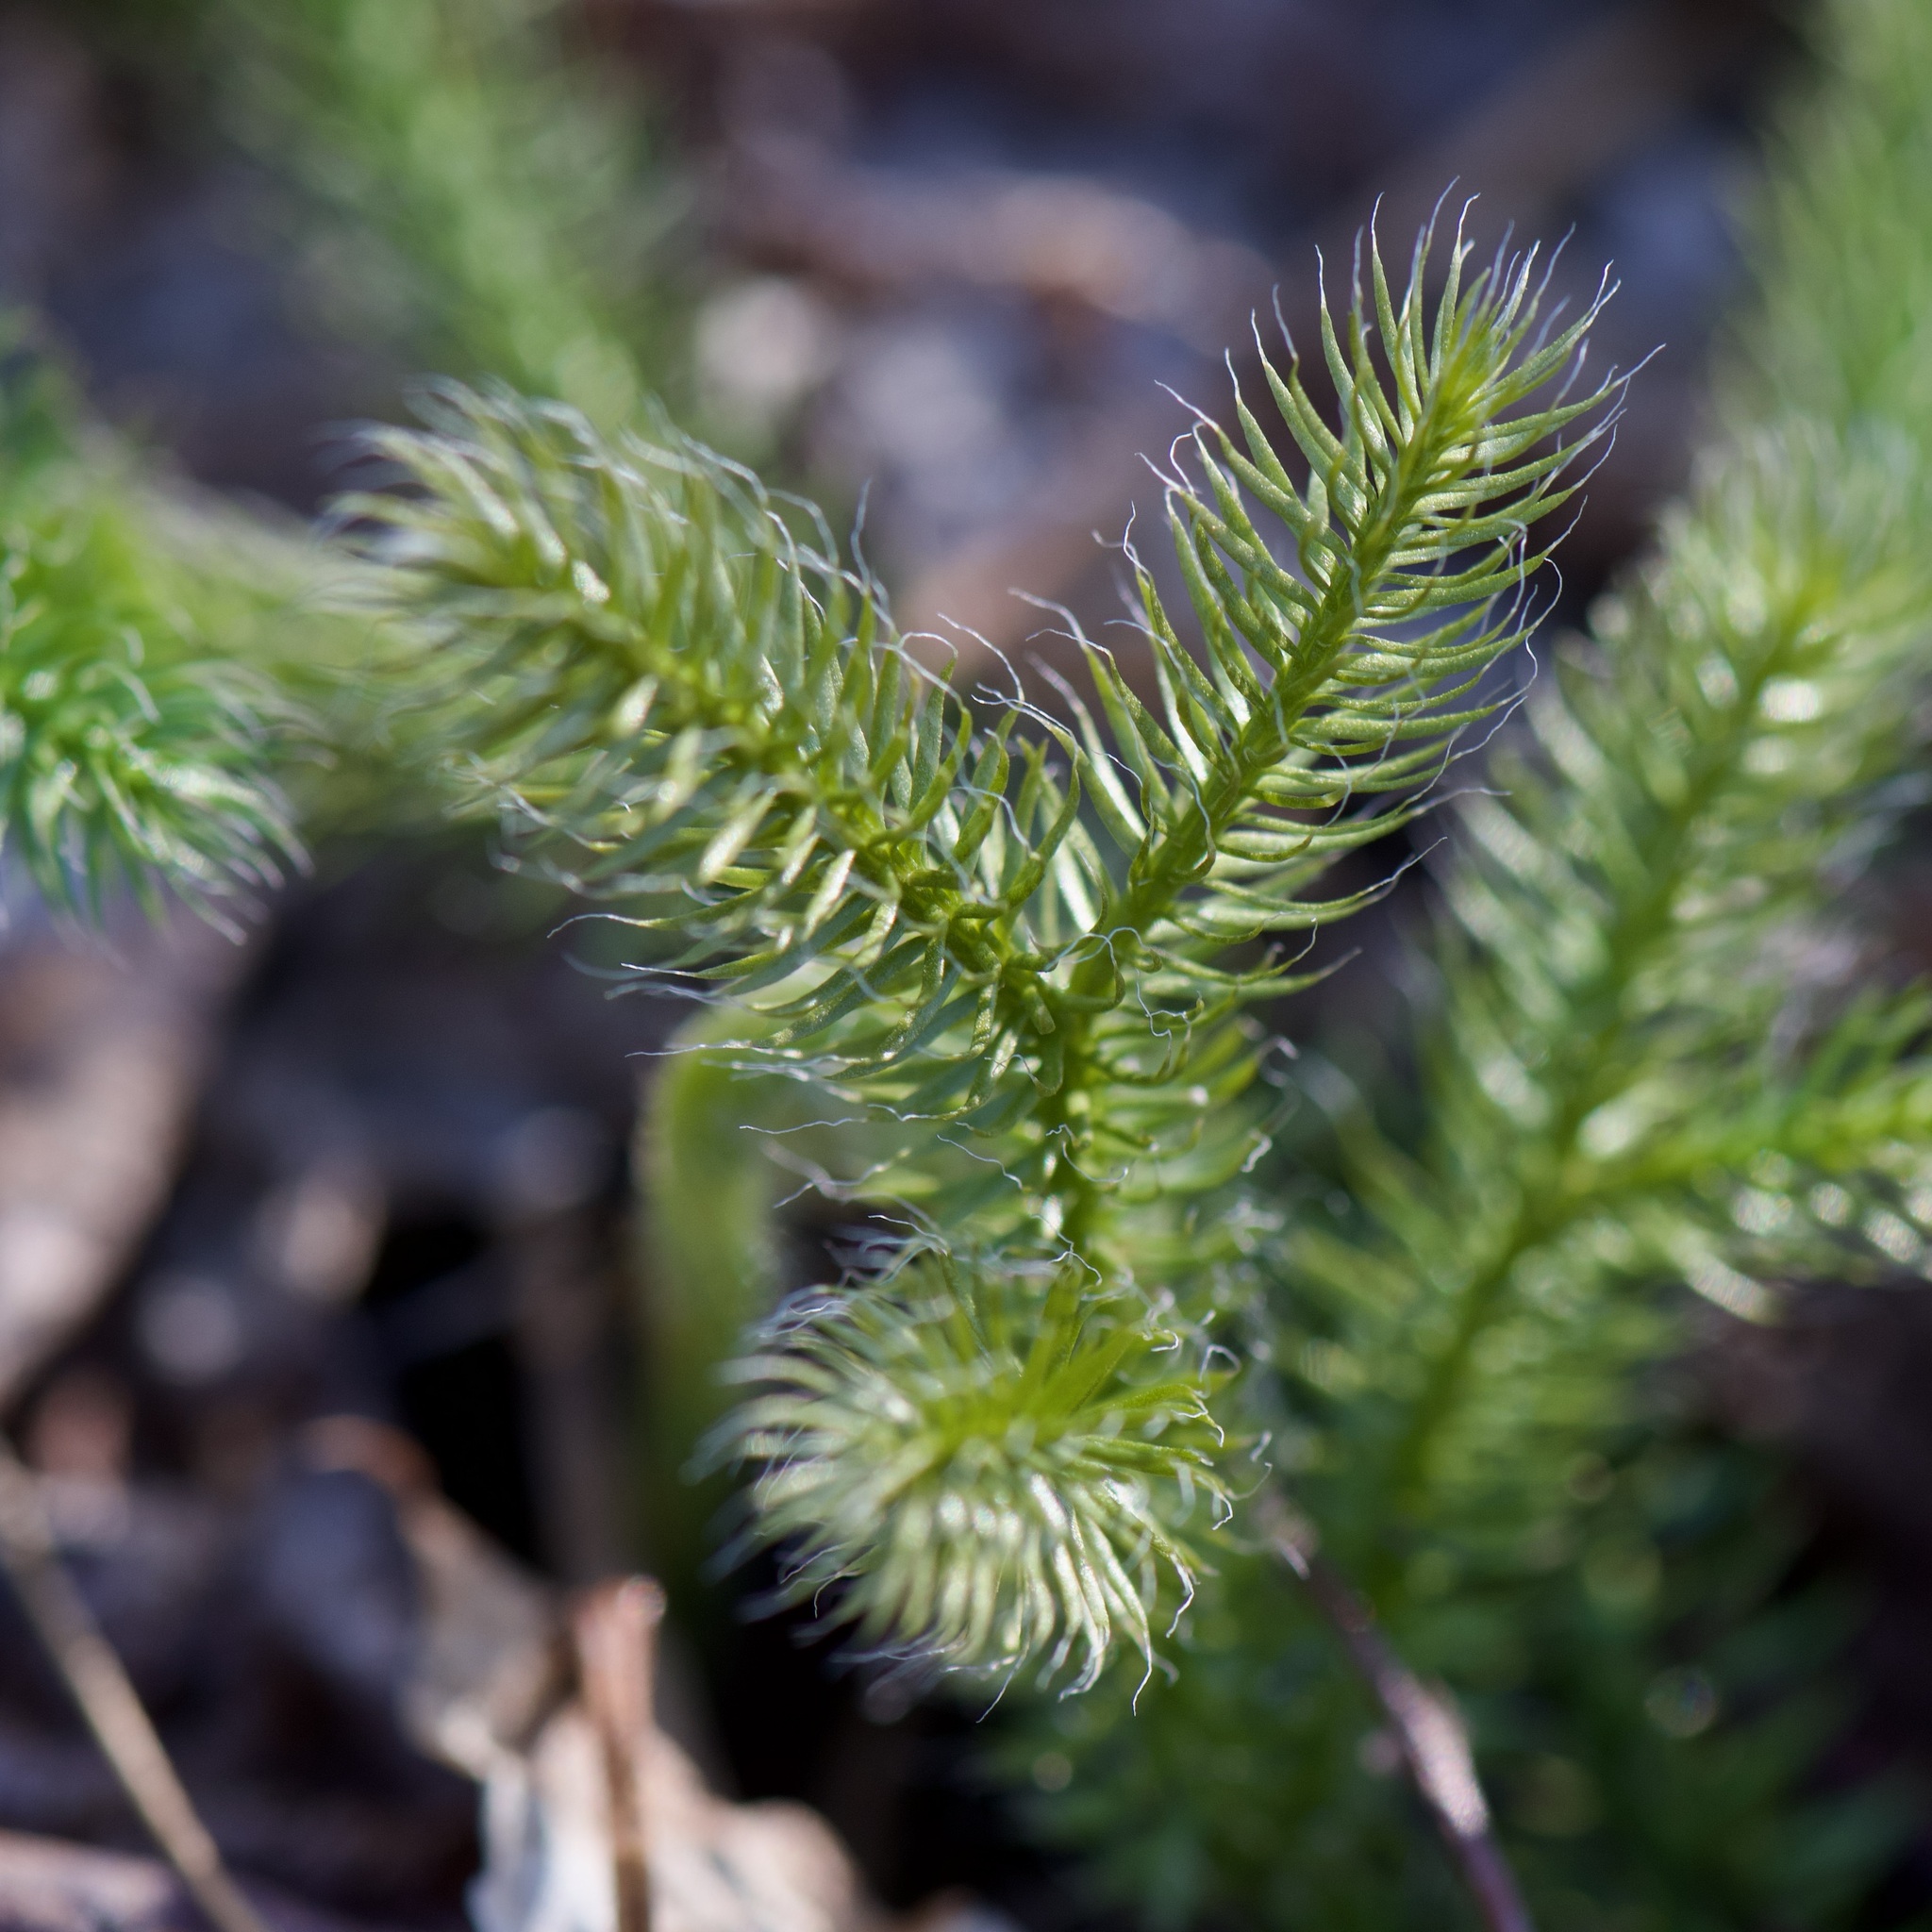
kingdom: Plantae
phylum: Tracheophyta
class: Lycopodiopsida
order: Lycopodiales
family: Lycopodiaceae
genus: Lycopodium
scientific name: Lycopodium clavatum
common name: Stag's-horn clubmoss
